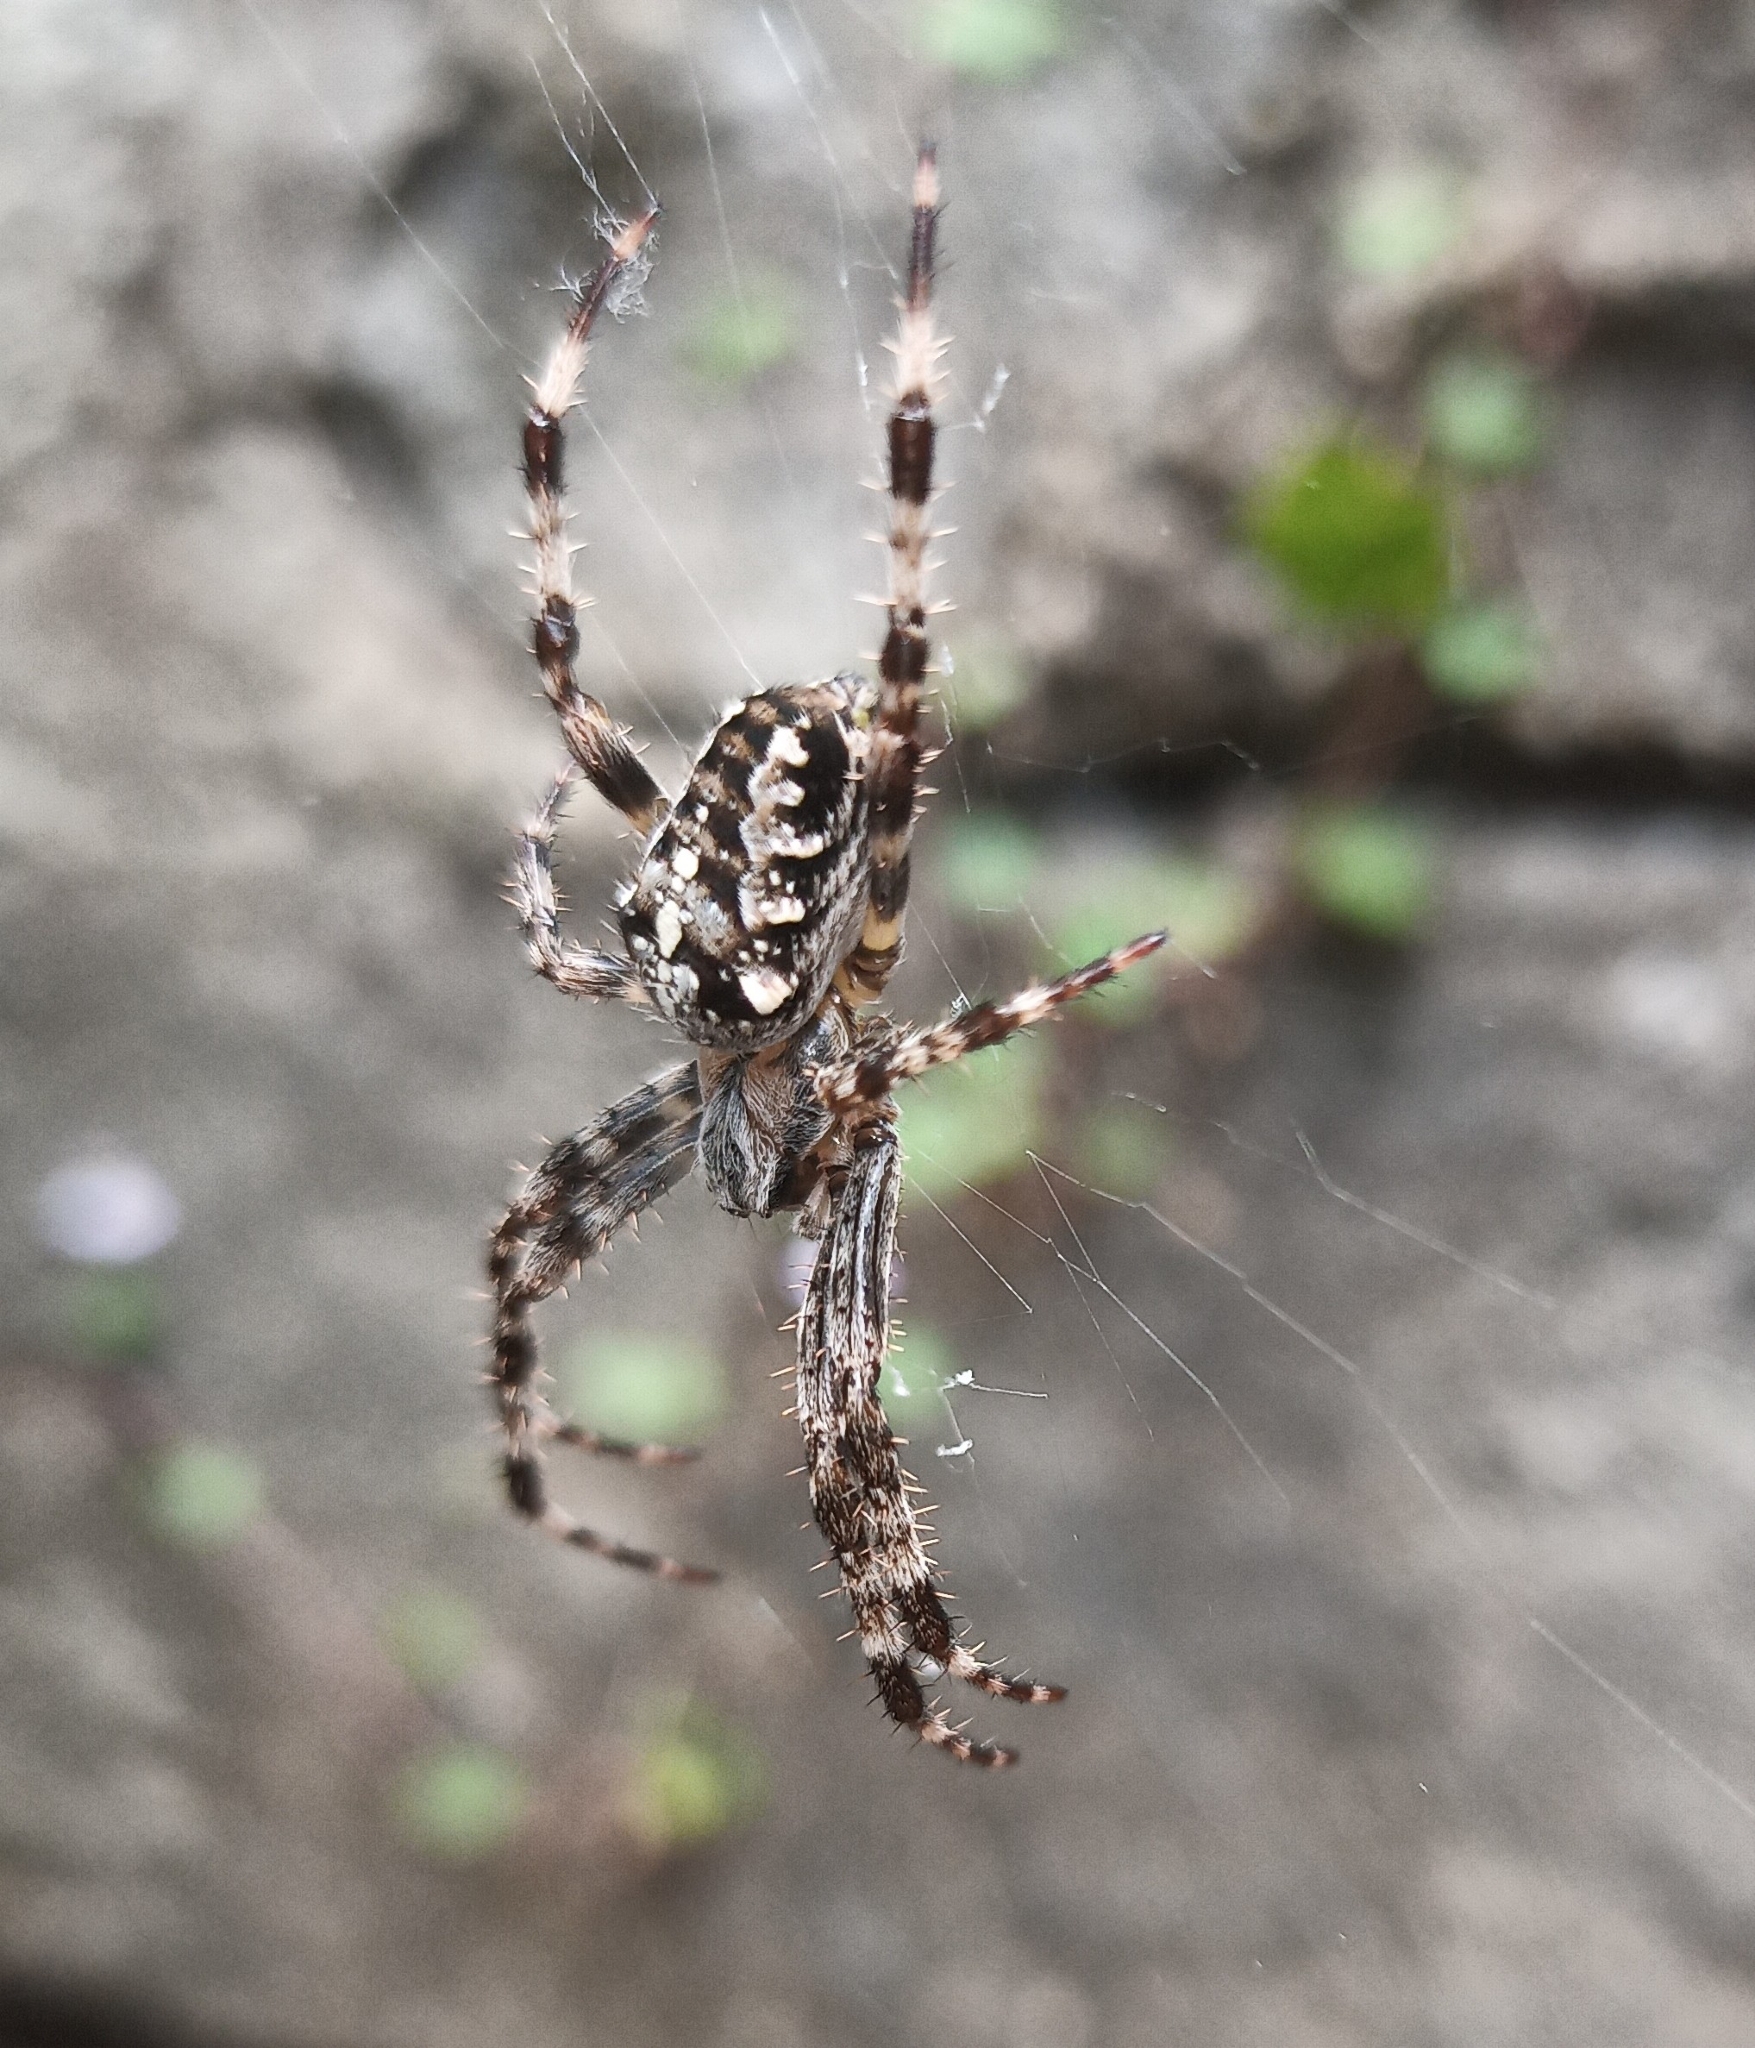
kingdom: Animalia
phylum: Arthropoda
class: Arachnida
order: Araneae
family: Araneidae
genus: Araneus
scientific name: Araneus diadematus
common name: Cross orbweaver
